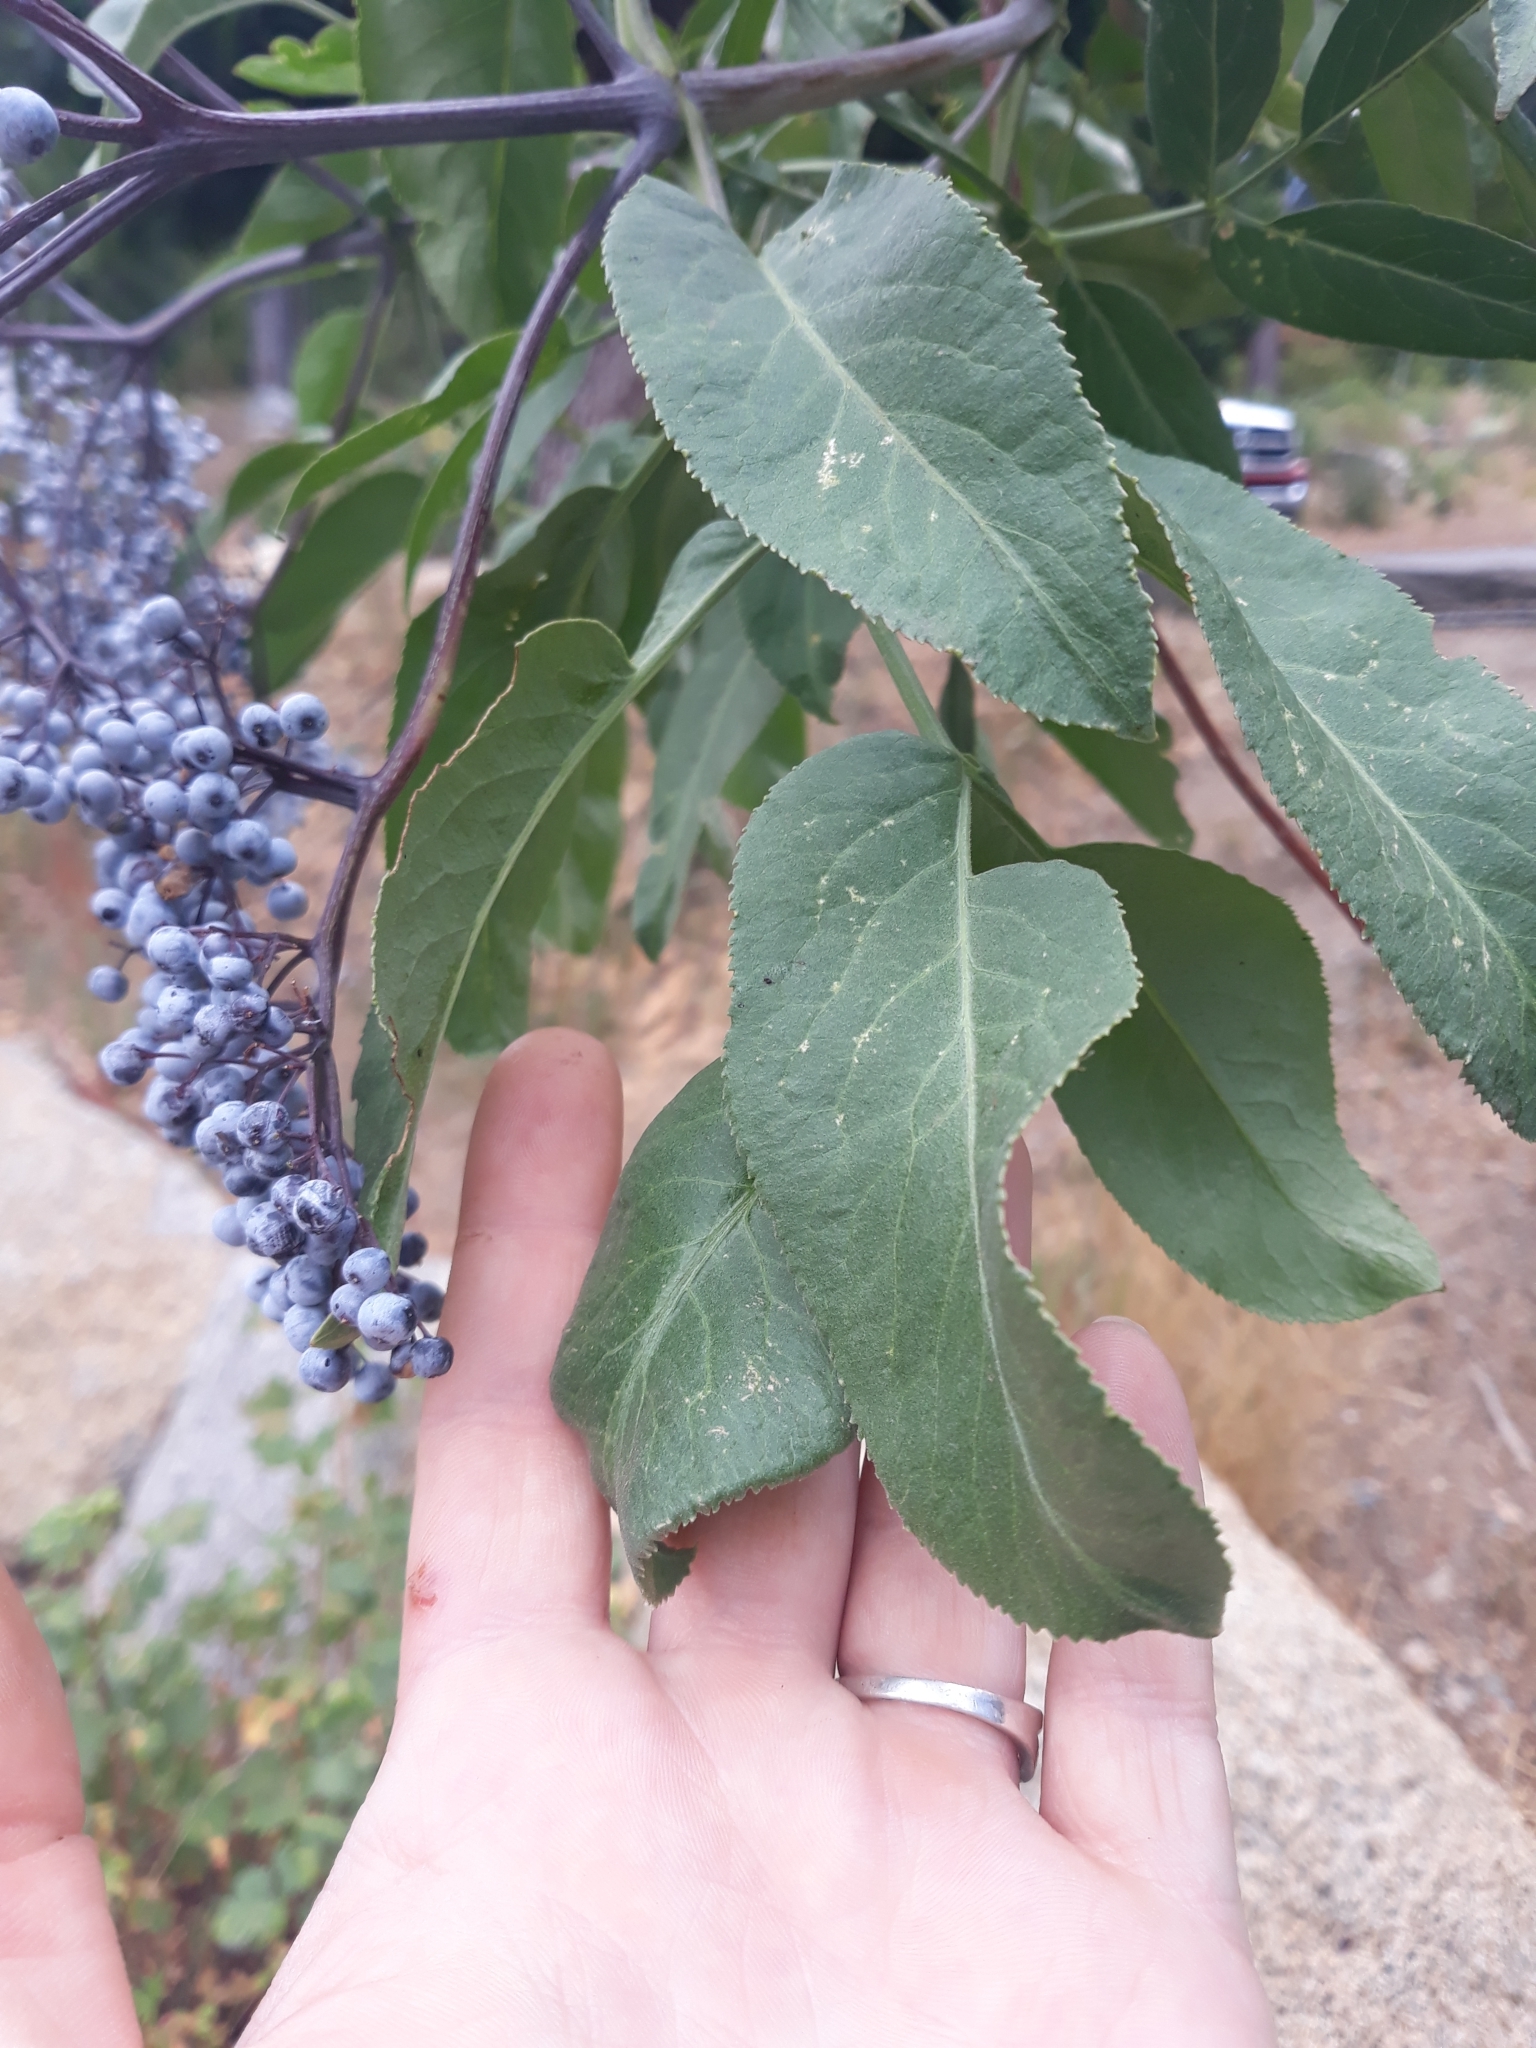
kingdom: Plantae
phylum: Tracheophyta
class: Magnoliopsida
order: Dipsacales
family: Viburnaceae
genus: Sambucus
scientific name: Sambucus cerulea
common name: Blue elder
